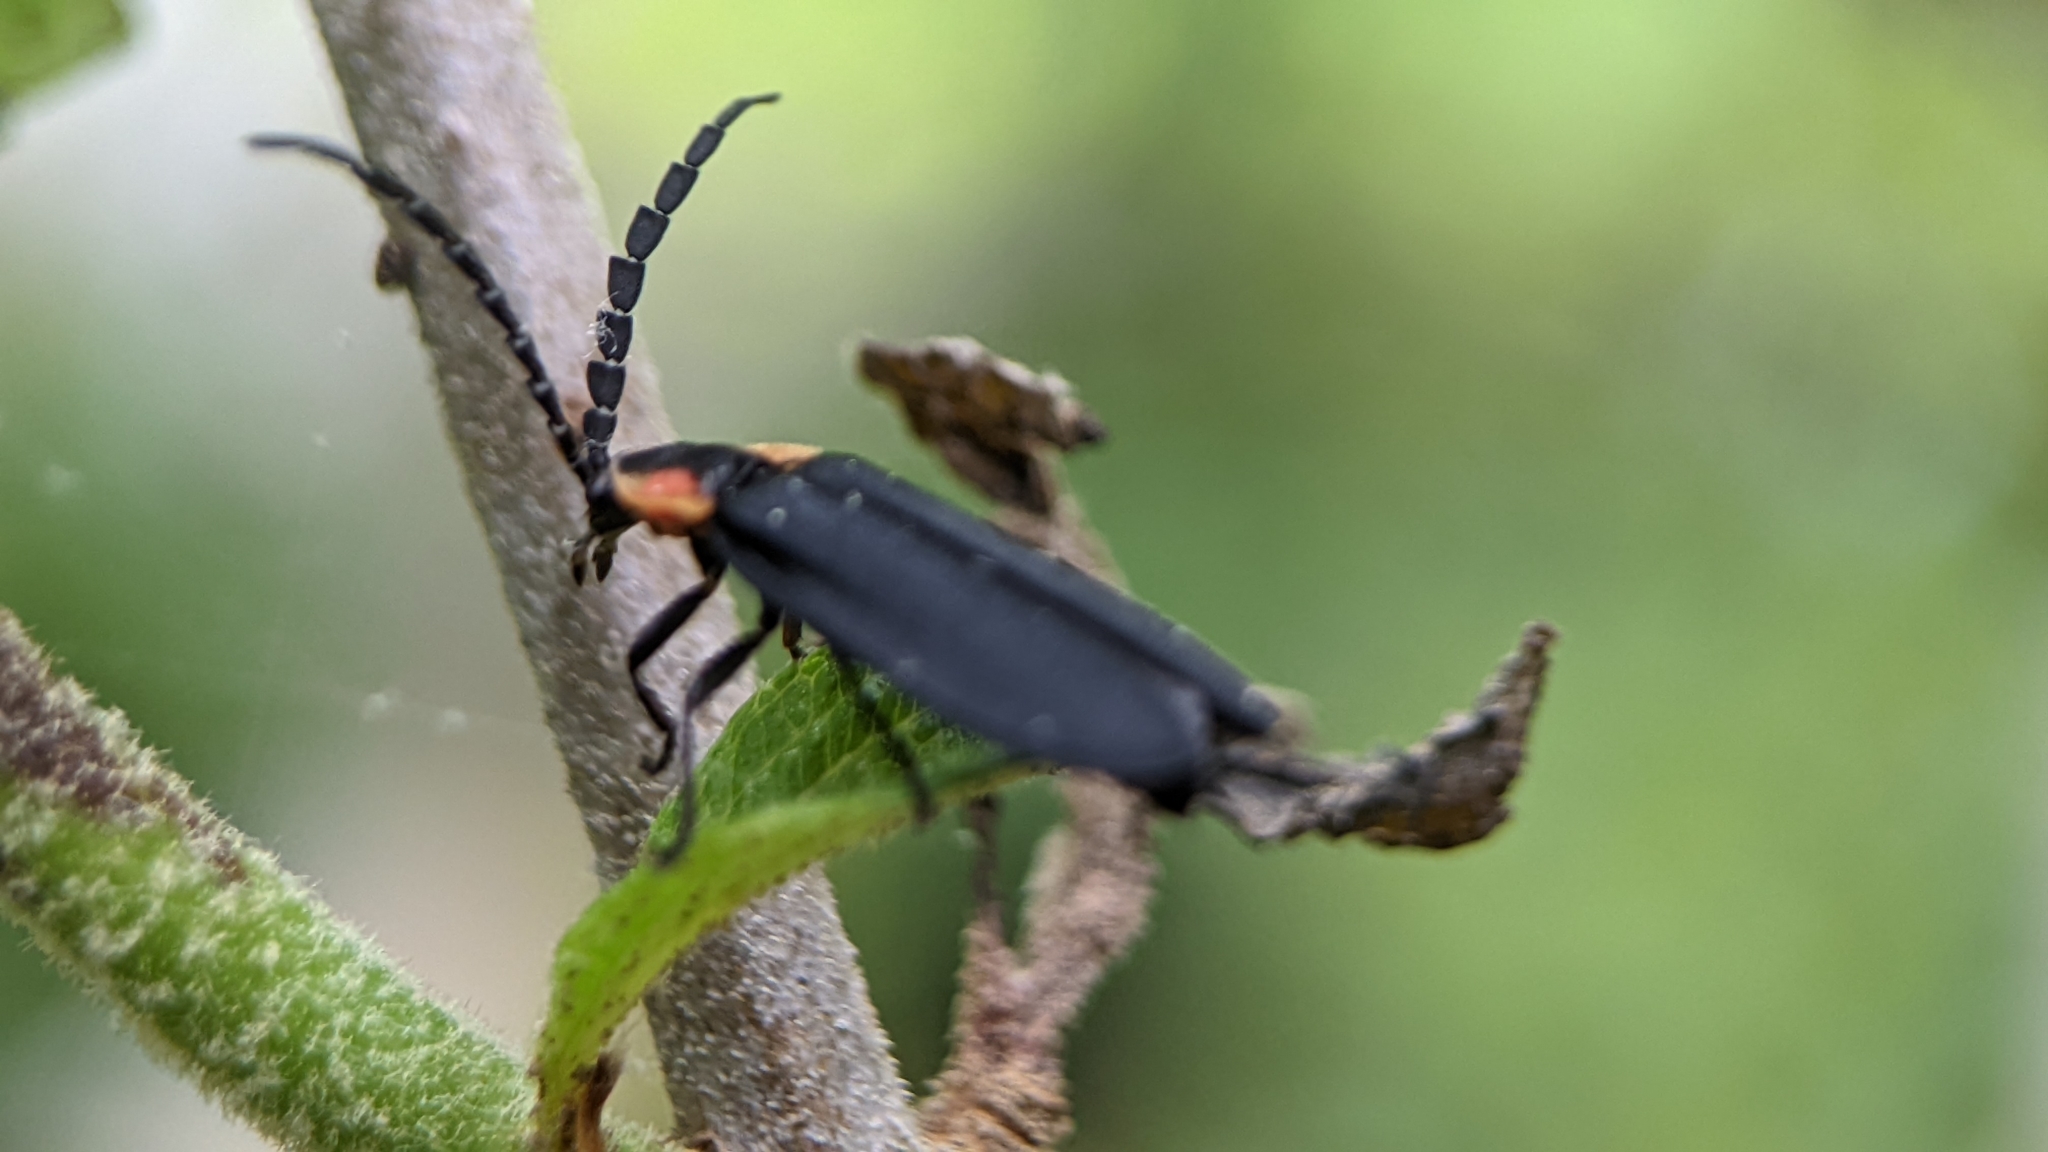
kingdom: Animalia
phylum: Arthropoda
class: Insecta
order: Coleoptera
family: Lampyridae
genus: Lucidota
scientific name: Lucidota atra
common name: Black firefly
